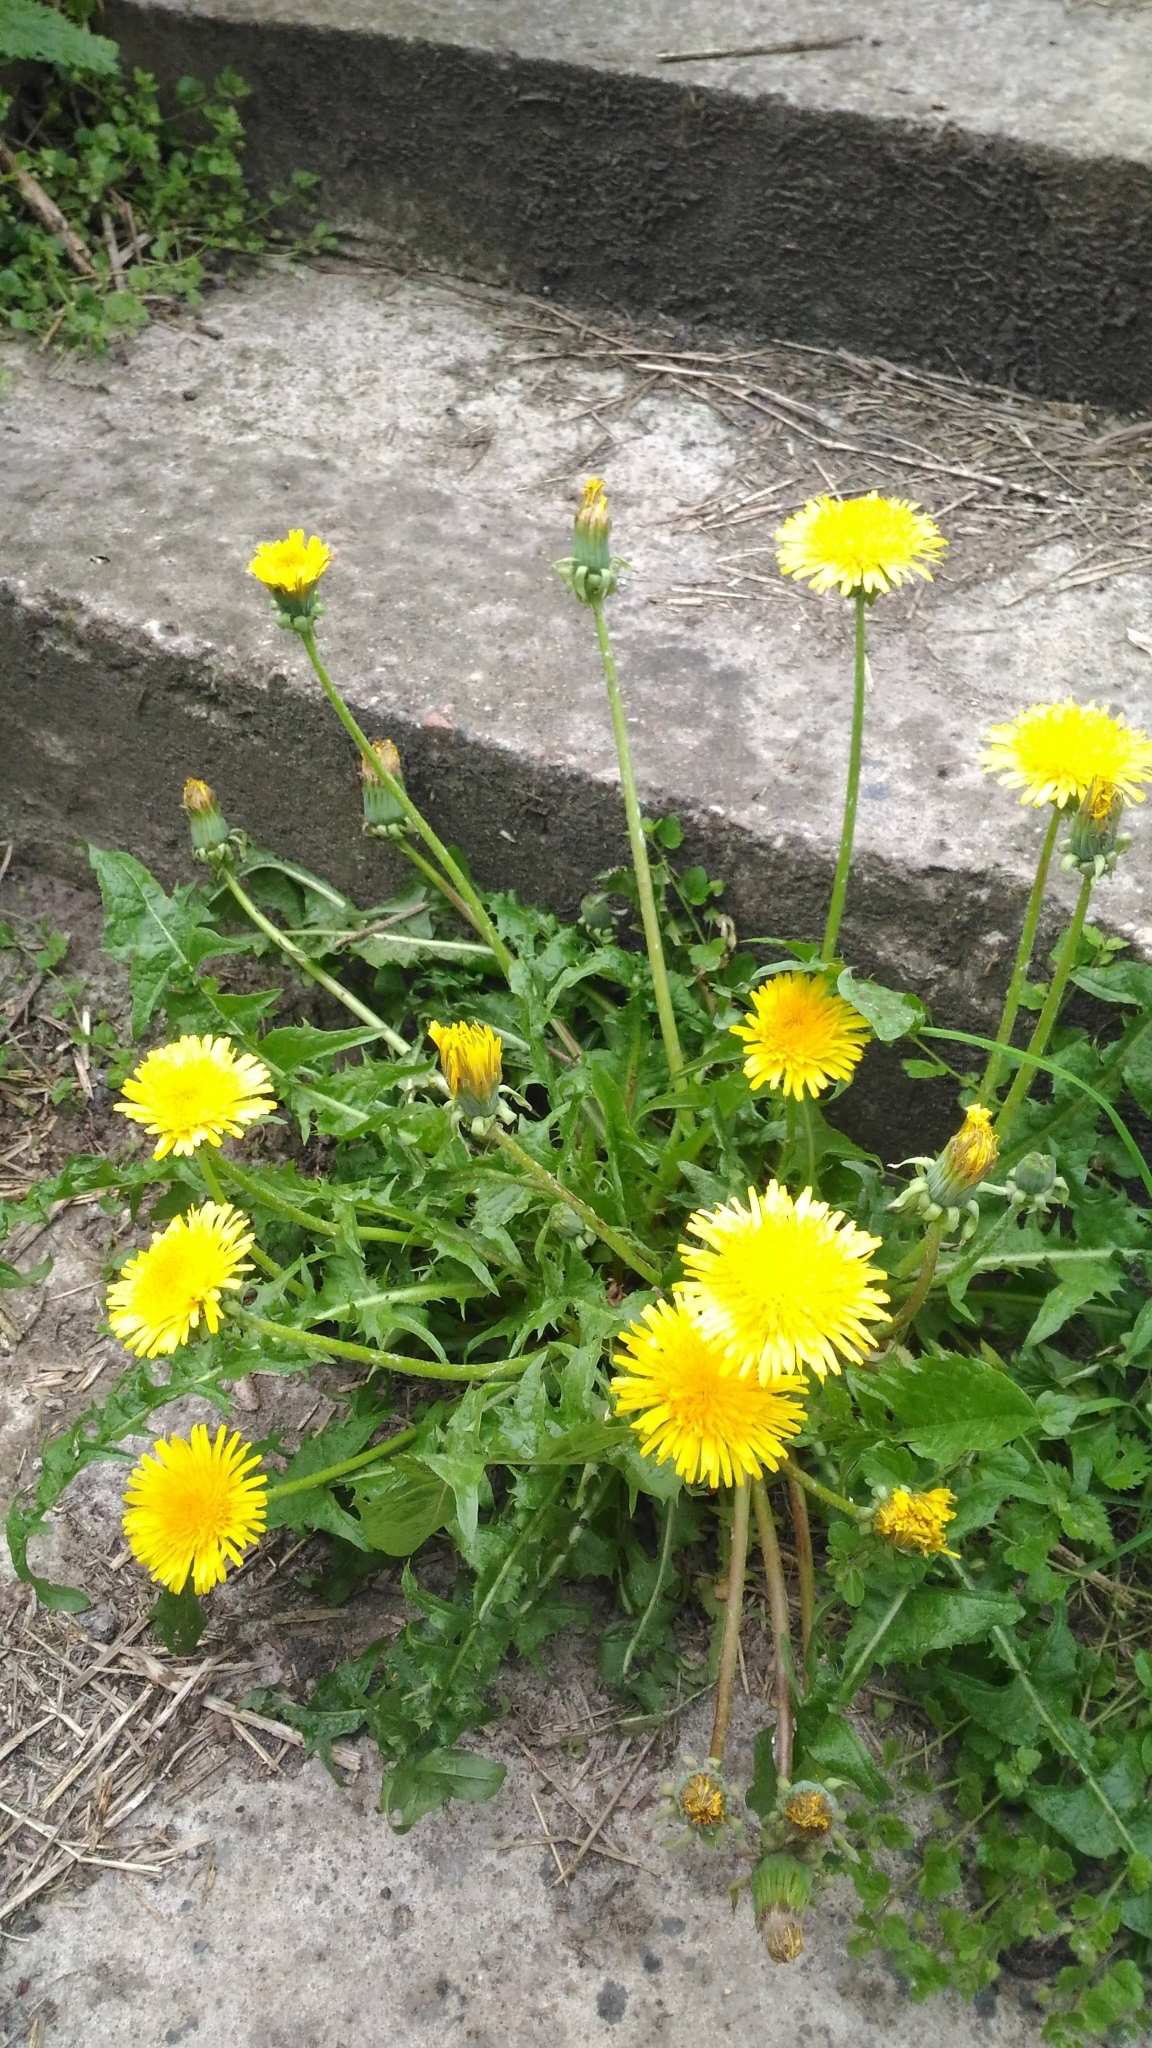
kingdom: Plantae
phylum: Tracheophyta
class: Magnoliopsida
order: Asterales
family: Asteraceae
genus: Taraxacum
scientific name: Taraxacum officinale
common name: Common dandelion
